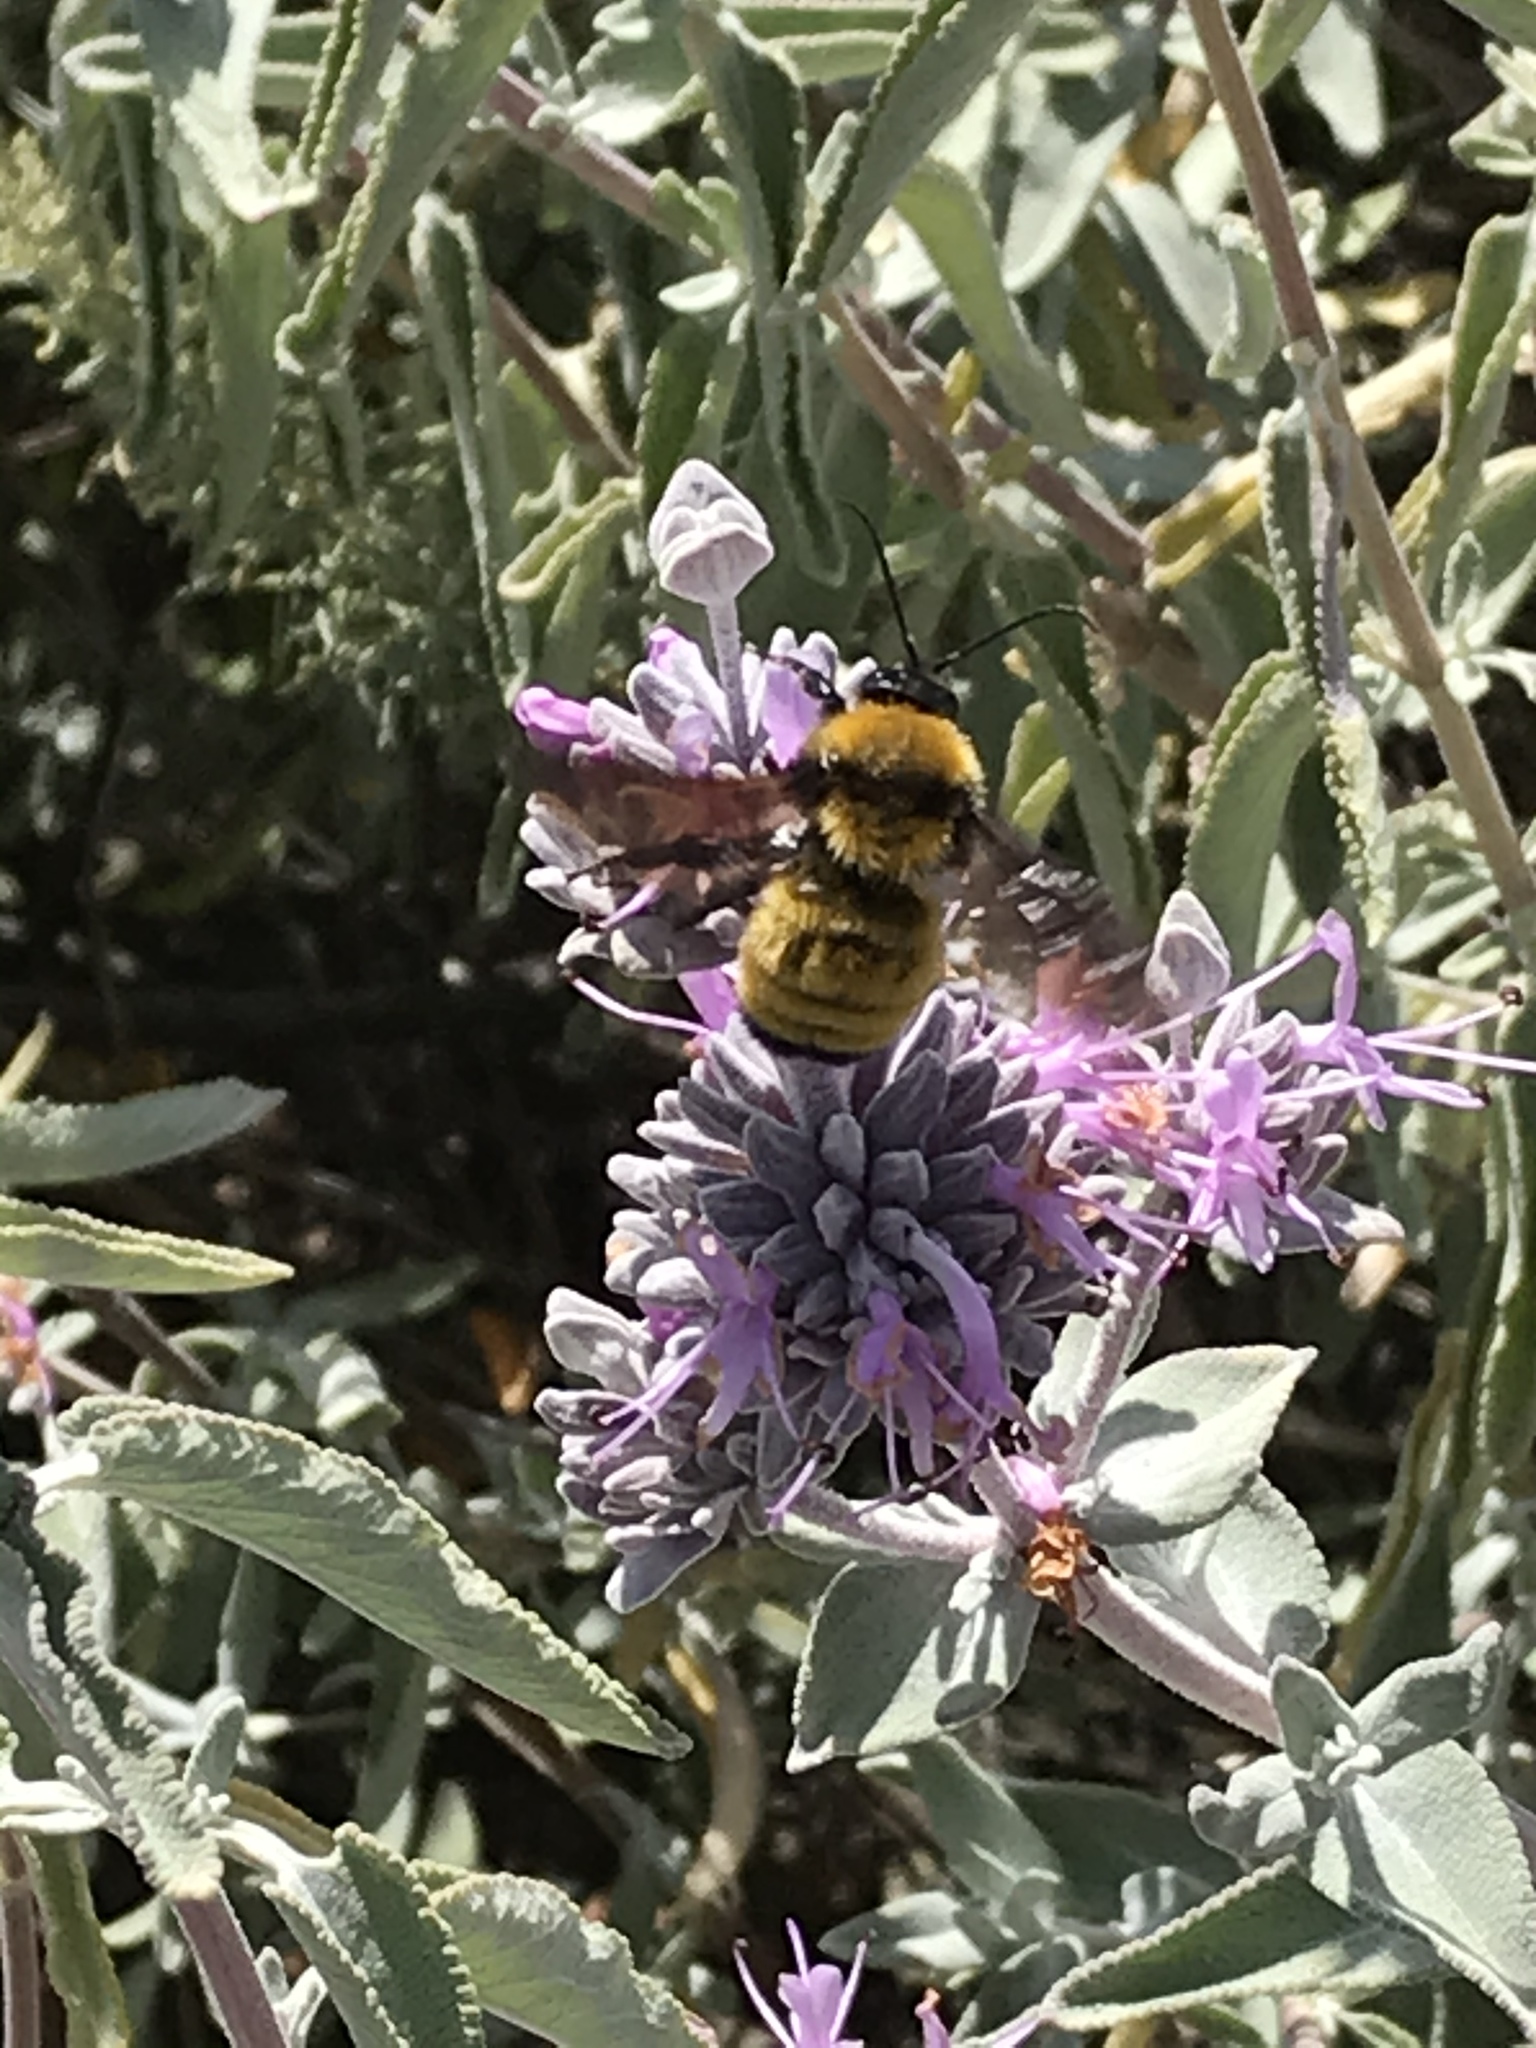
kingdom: Animalia
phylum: Arthropoda
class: Insecta
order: Hymenoptera
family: Apidae
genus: Bombus
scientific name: Bombus sonorus
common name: Sonoran bumble bee
